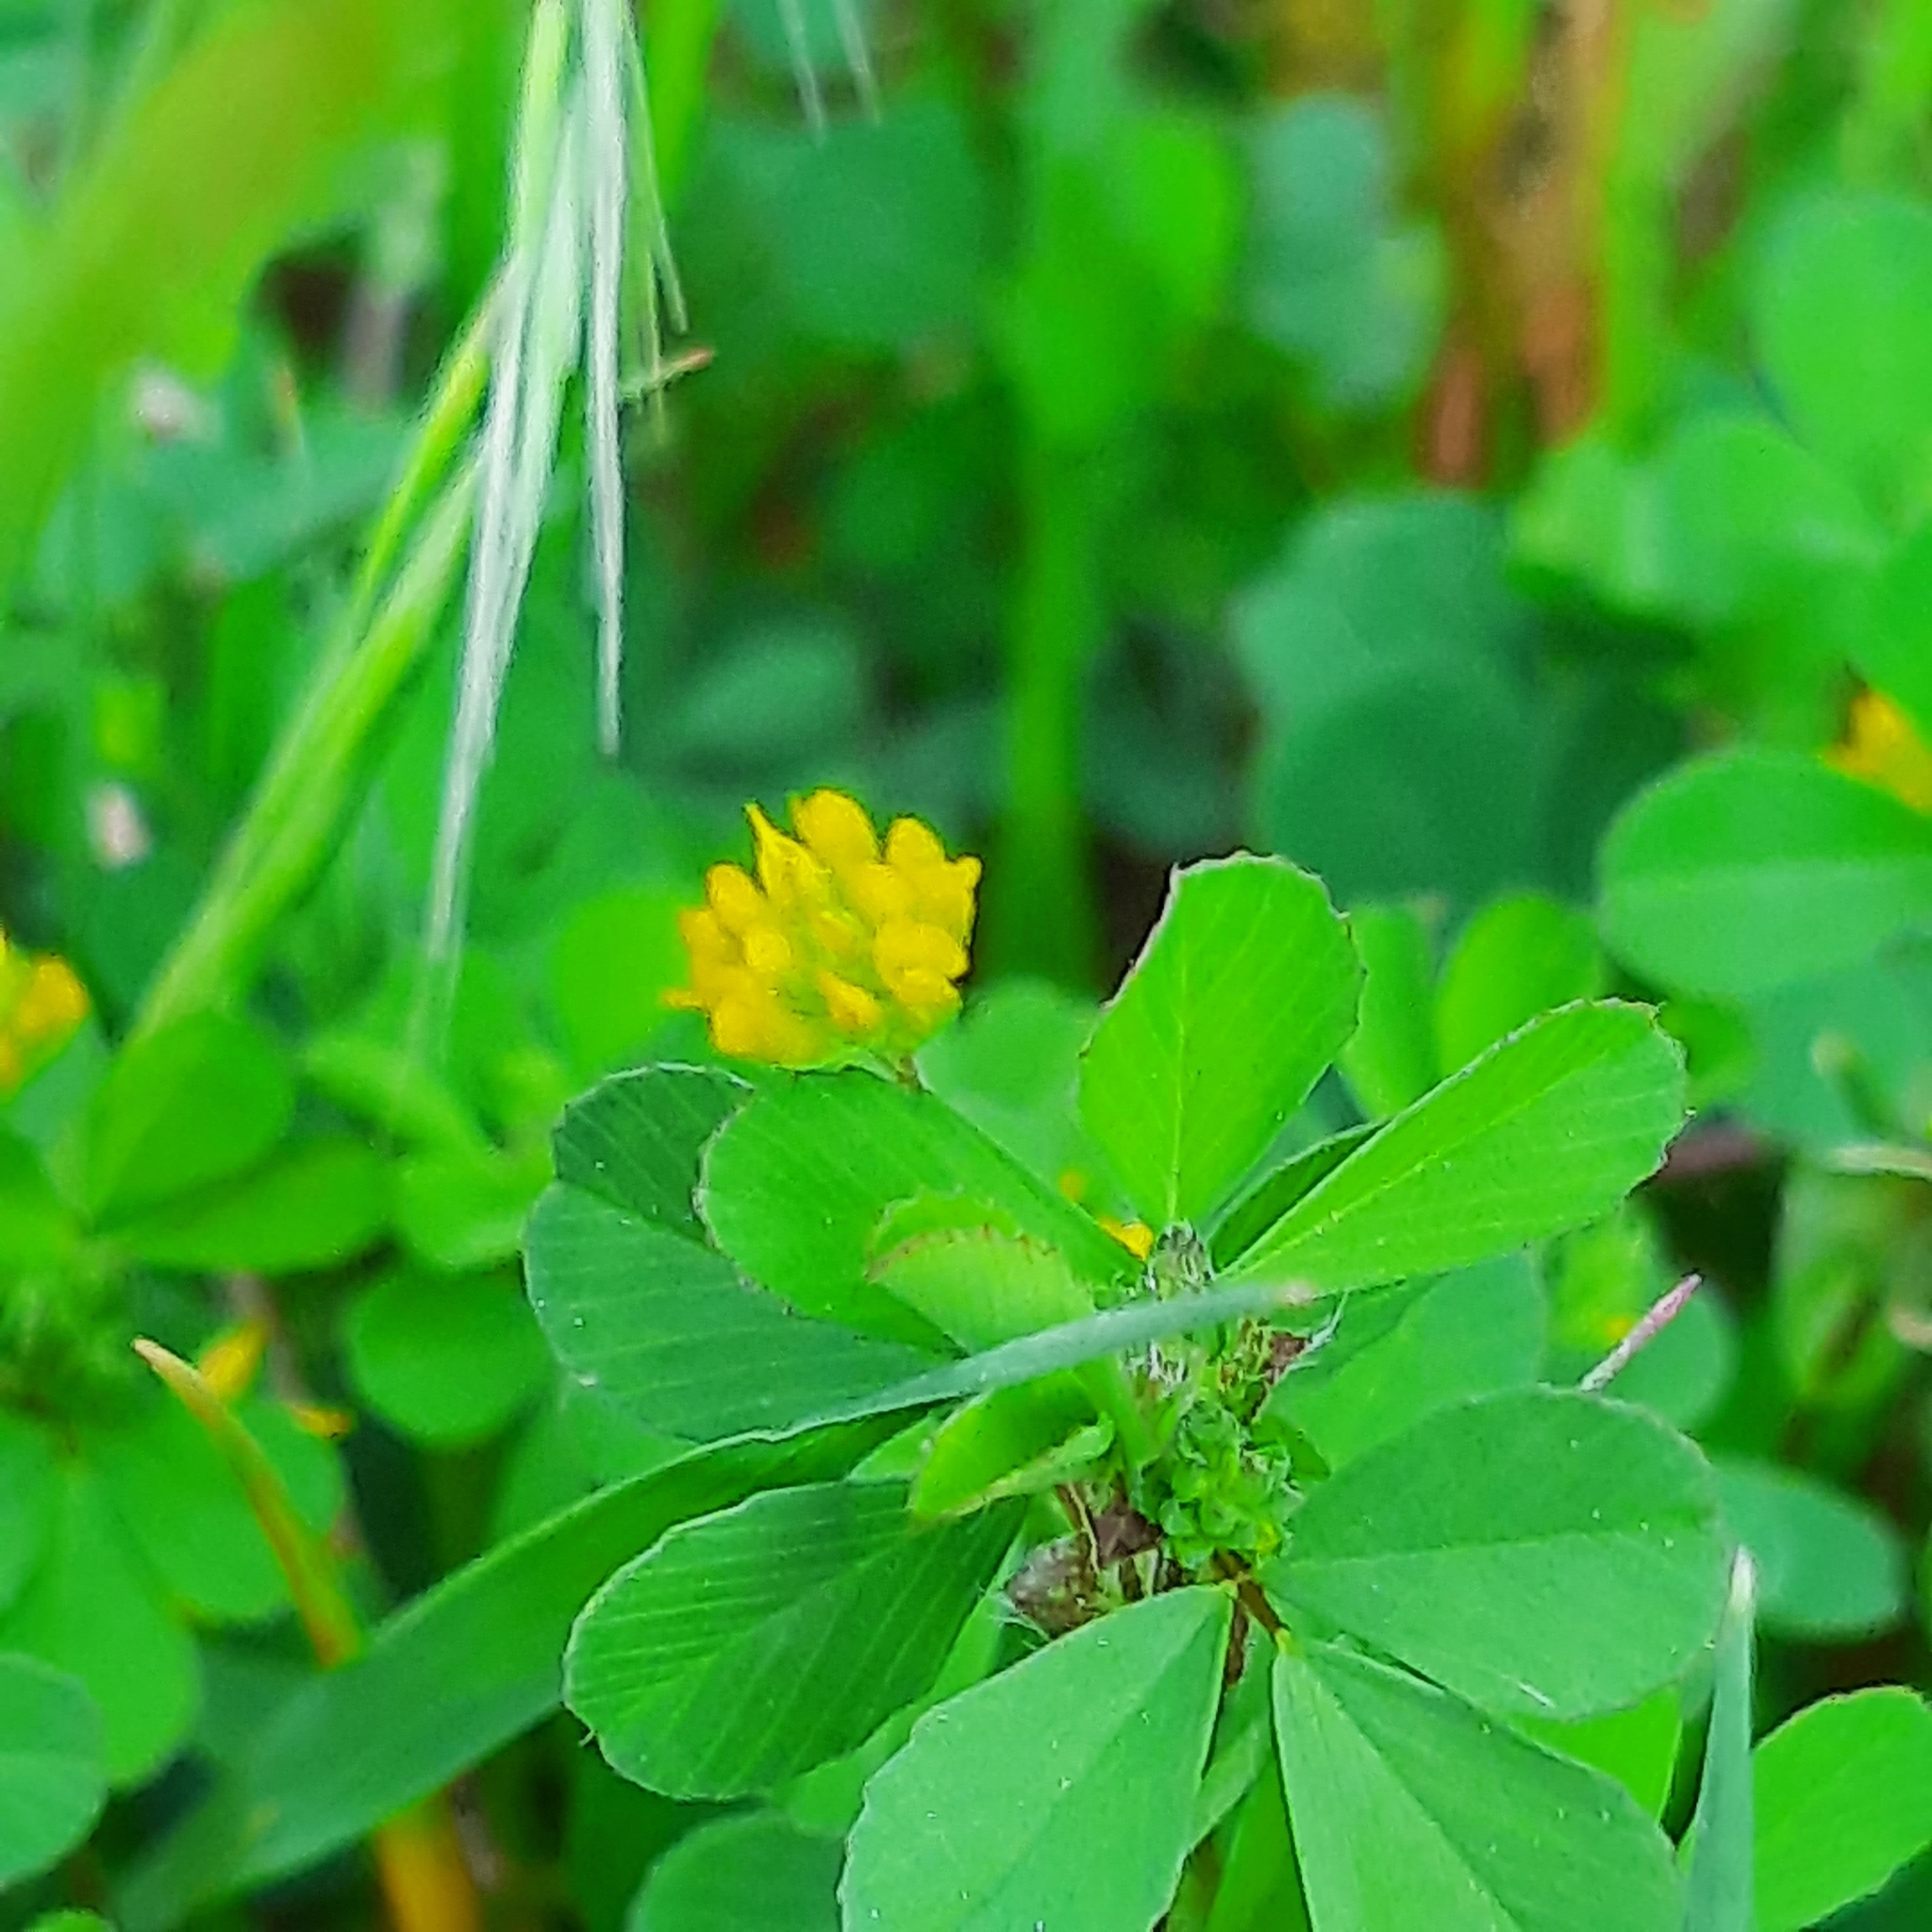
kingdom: Plantae
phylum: Tracheophyta
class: Magnoliopsida
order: Fabales
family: Fabaceae
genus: Trifolium
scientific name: Trifolium dubium
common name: Suckling clover
